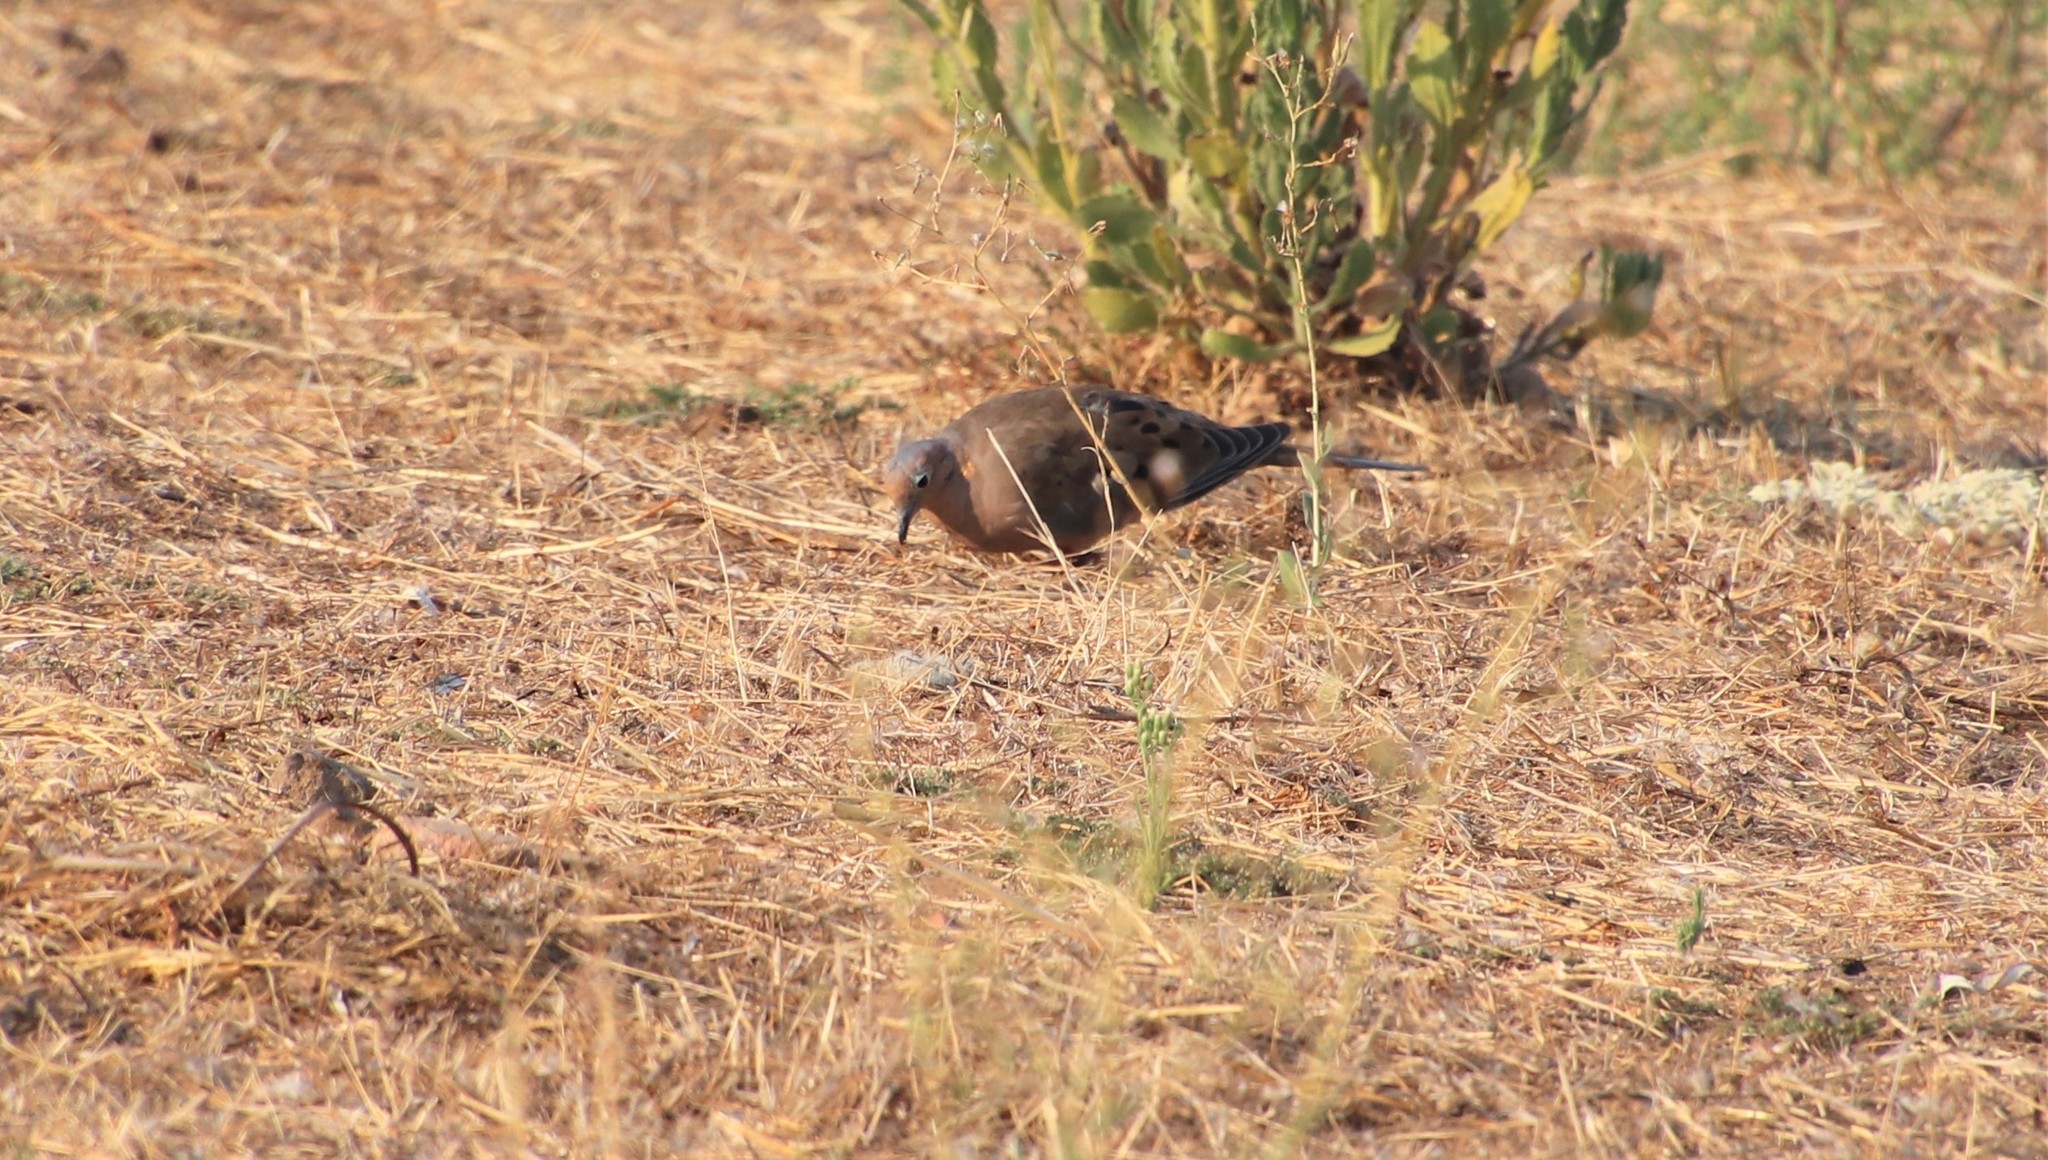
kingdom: Animalia
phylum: Chordata
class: Aves
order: Columbiformes
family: Columbidae
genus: Zenaida
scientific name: Zenaida macroura
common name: Mourning dove
